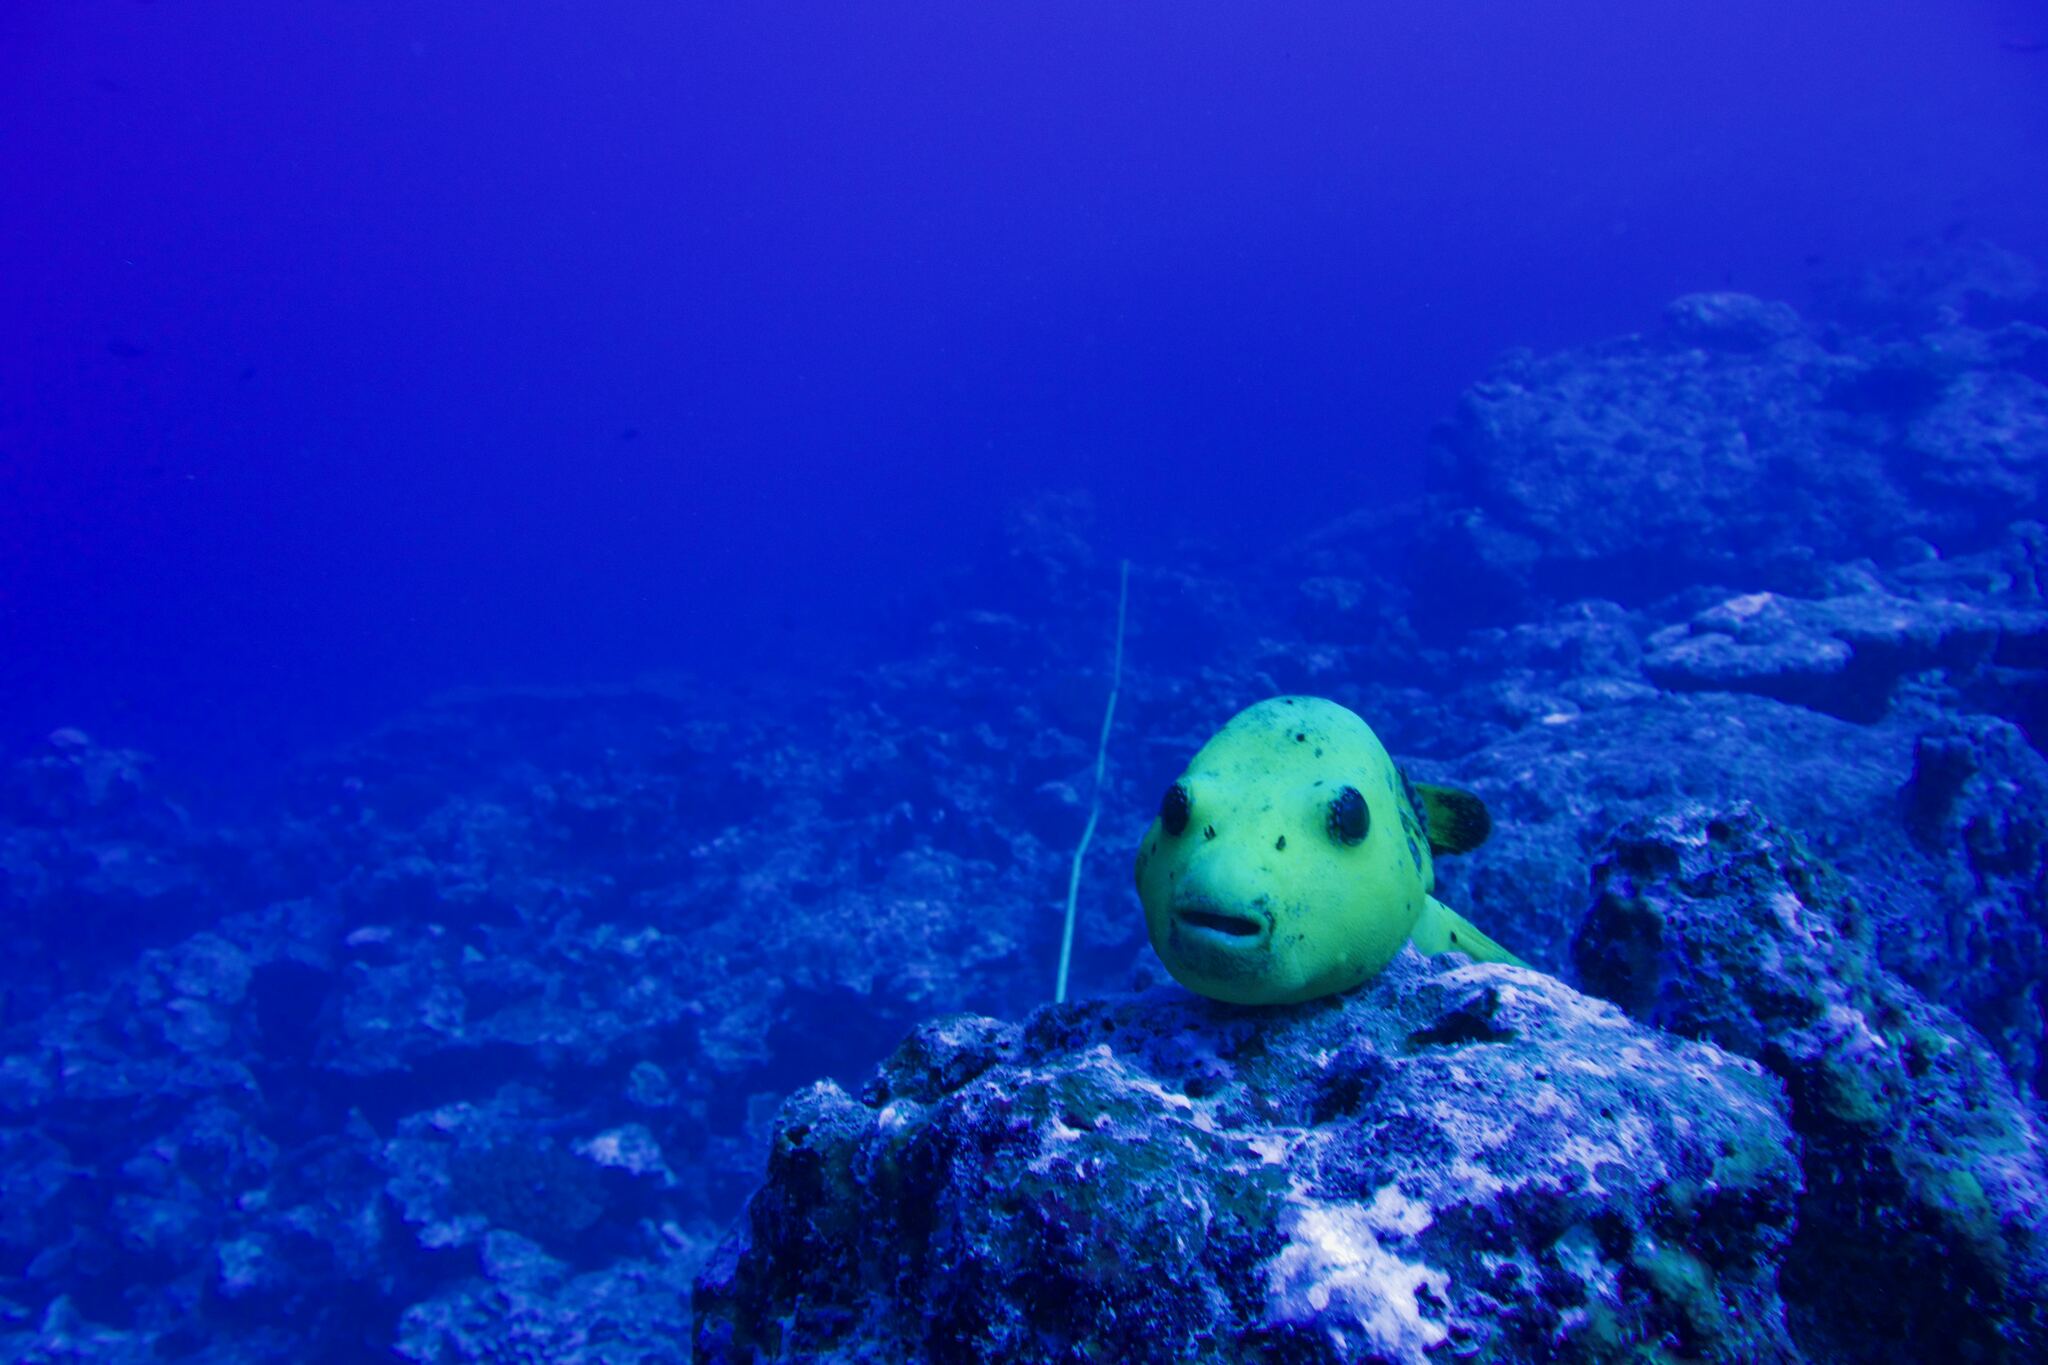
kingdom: Animalia
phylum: Chordata
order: Tetraodontiformes
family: Tetraodontidae
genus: Arothron
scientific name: Arothron meleagris
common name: Guinea-fowl pufferfish
